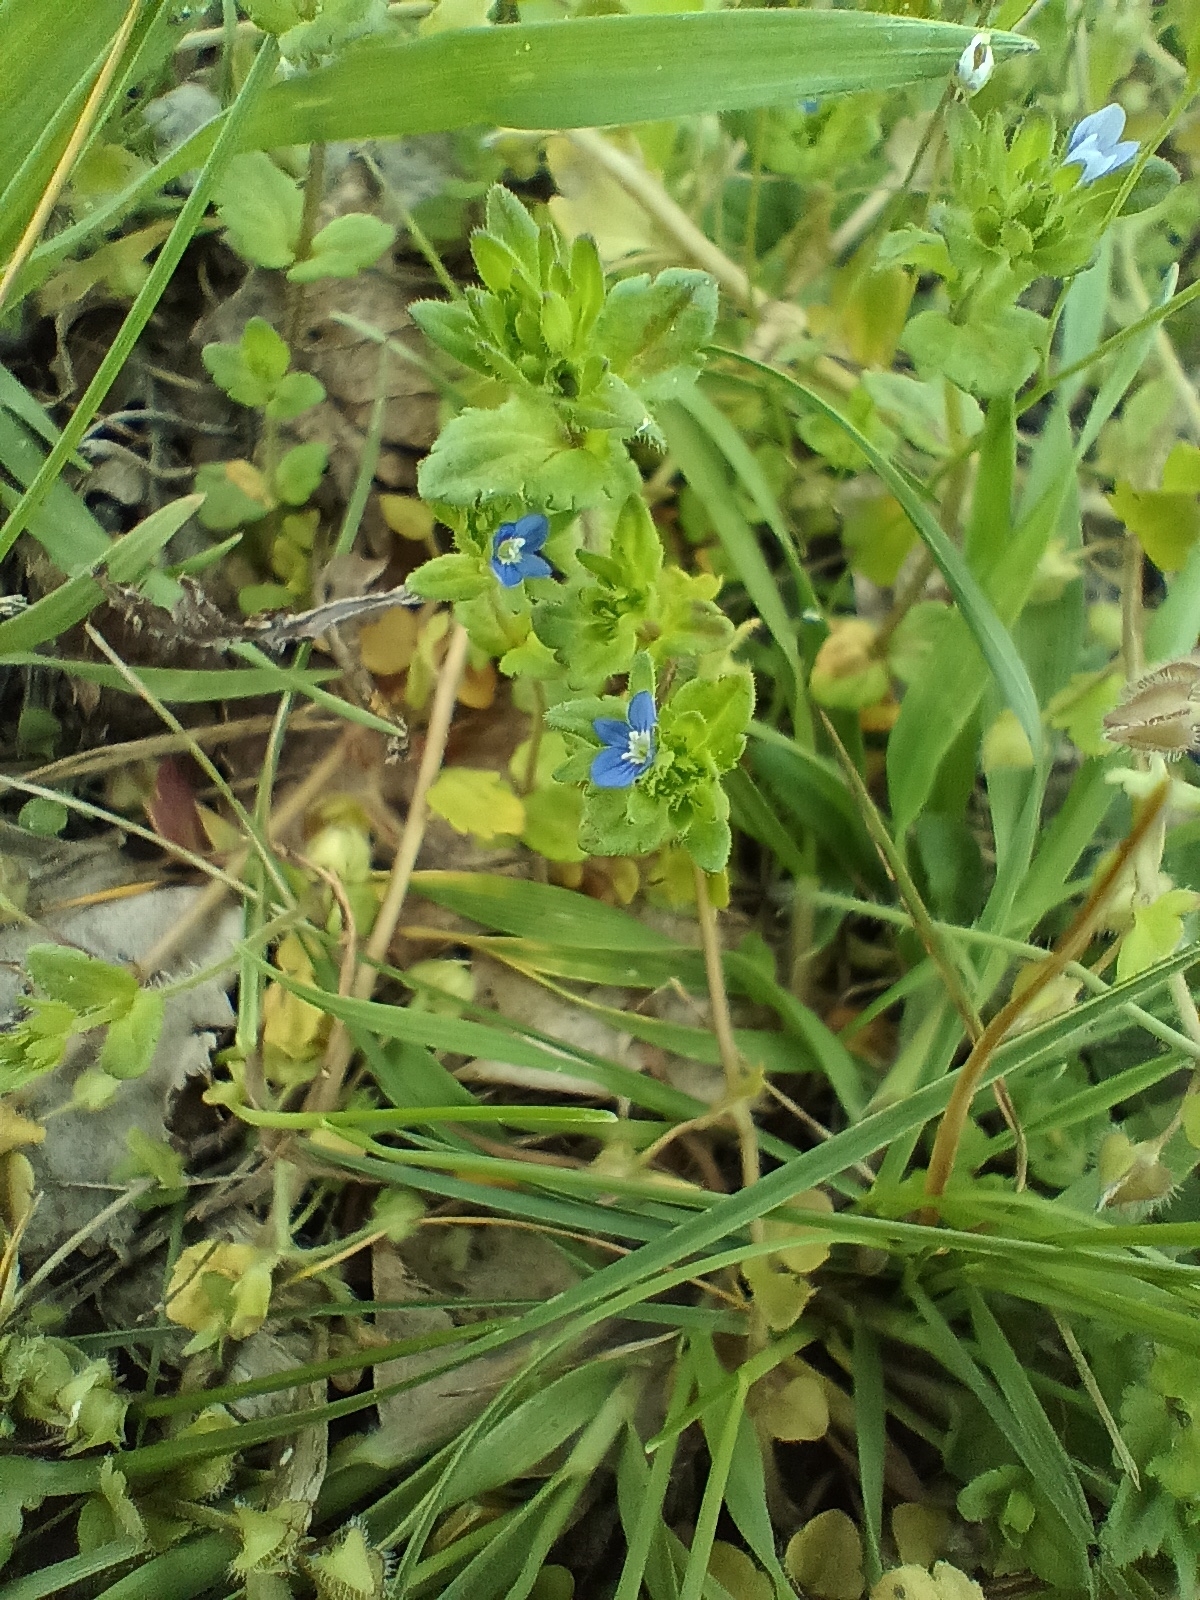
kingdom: Plantae
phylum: Tracheophyta
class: Magnoliopsida
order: Lamiales
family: Plantaginaceae
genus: Veronica
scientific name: Veronica arvensis
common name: Corn speedwell
